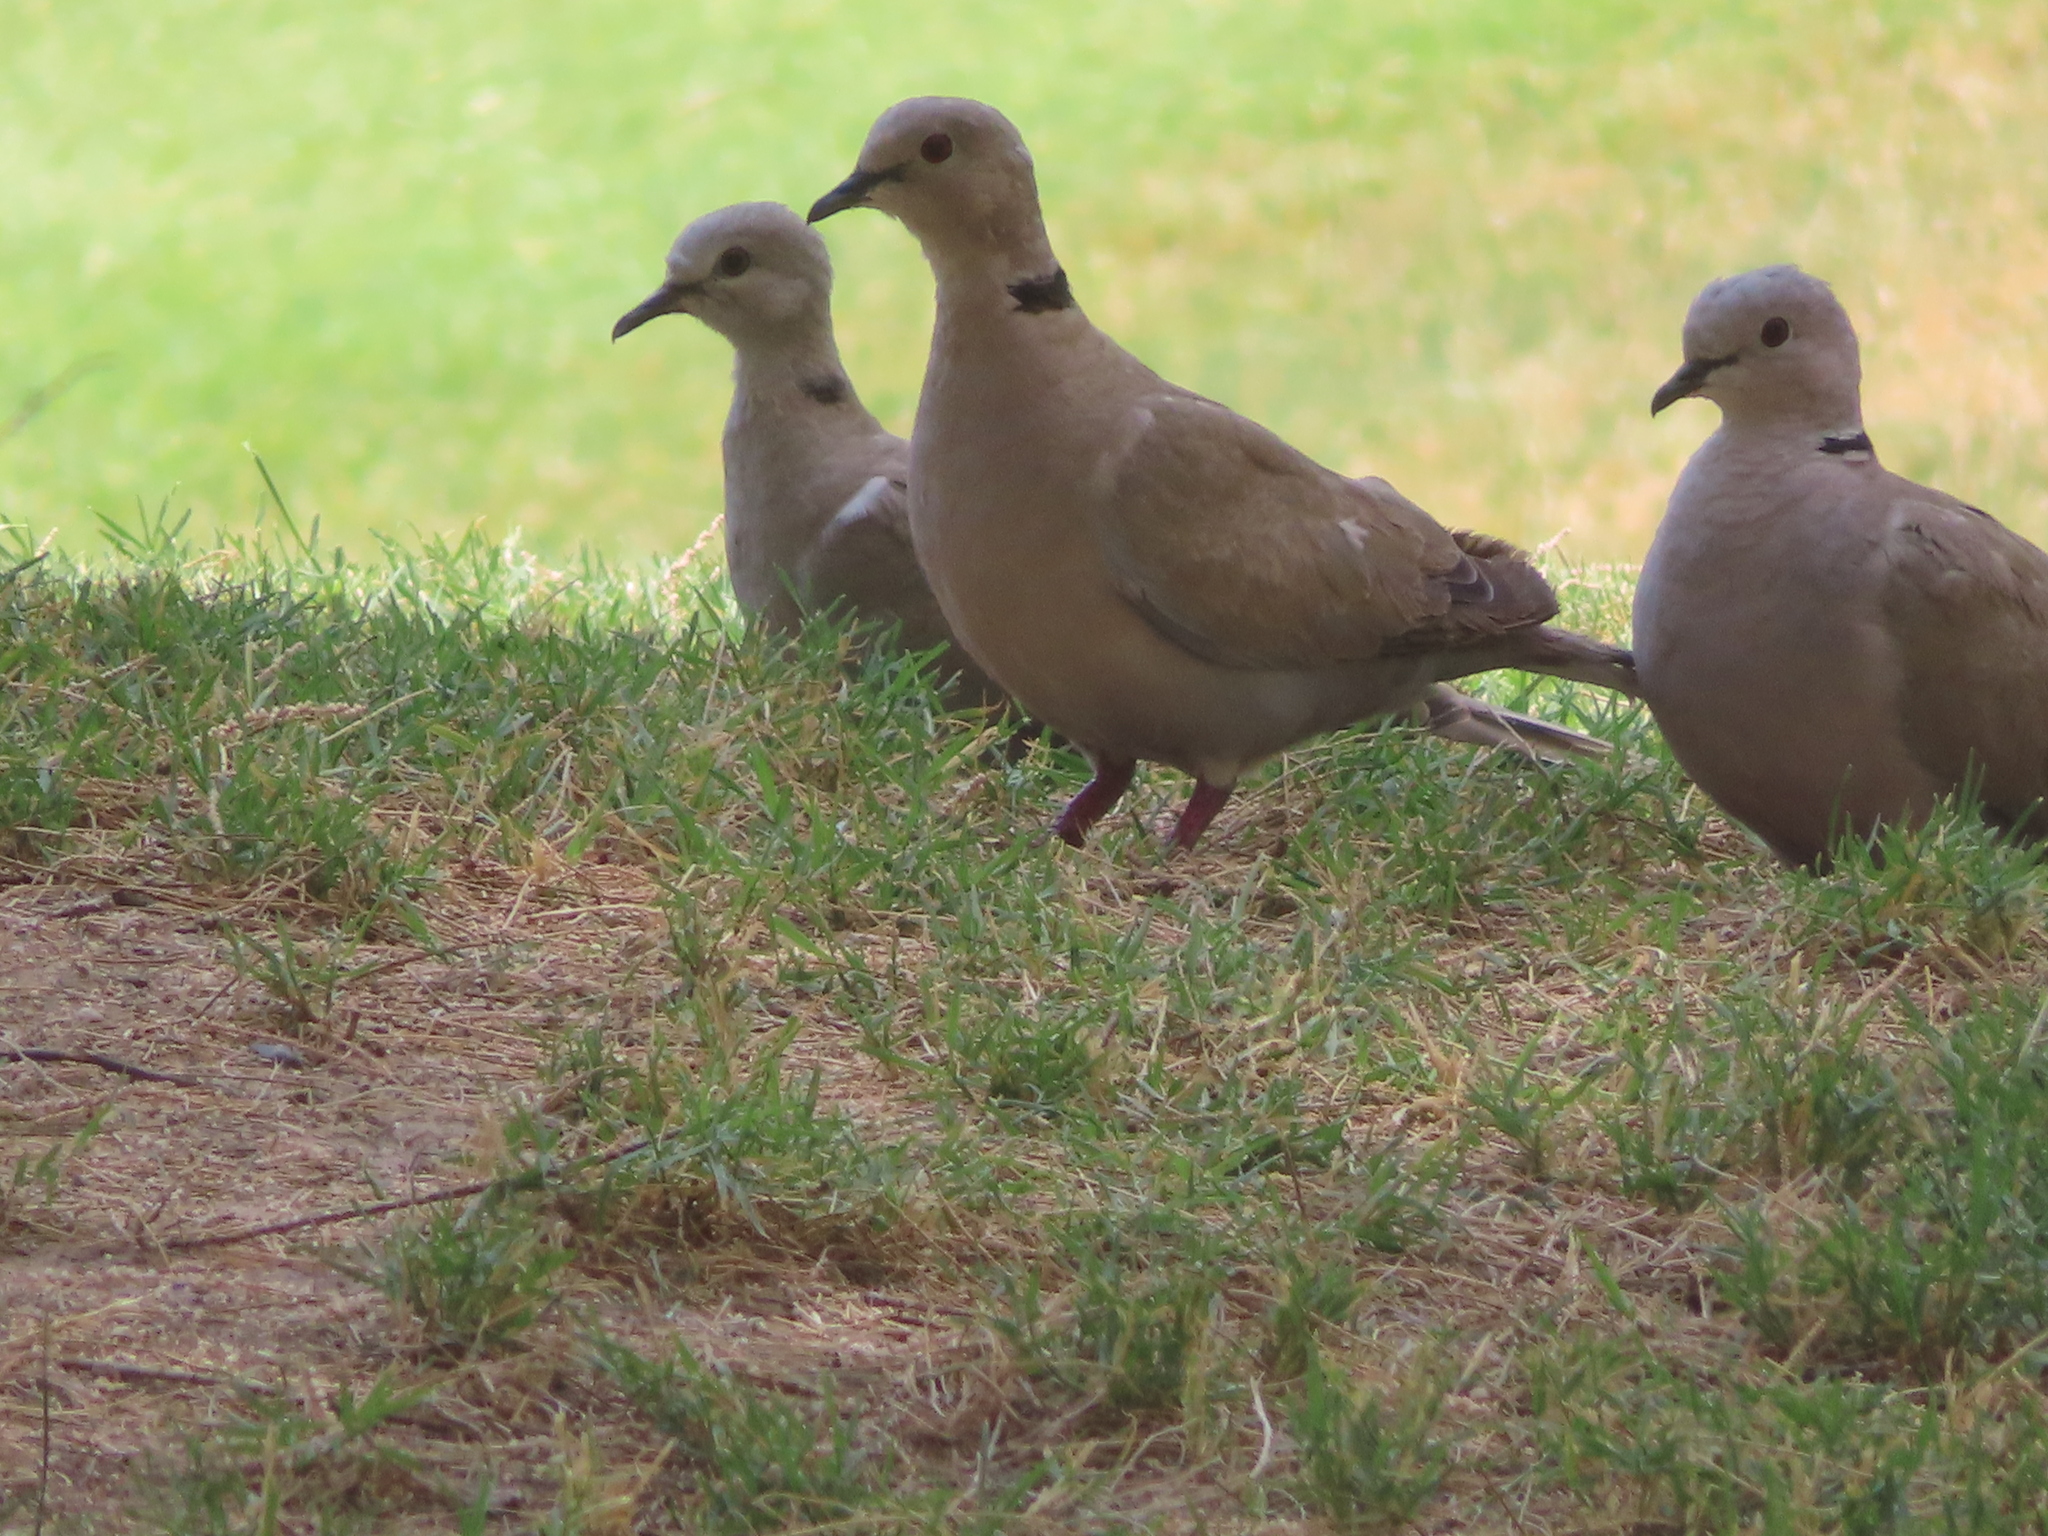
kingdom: Animalia
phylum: Chordata
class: Aves
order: Columbiformes
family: Columbidae
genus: Streptopelia
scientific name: Streptopelia decaocto
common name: Eurasian collared dove
